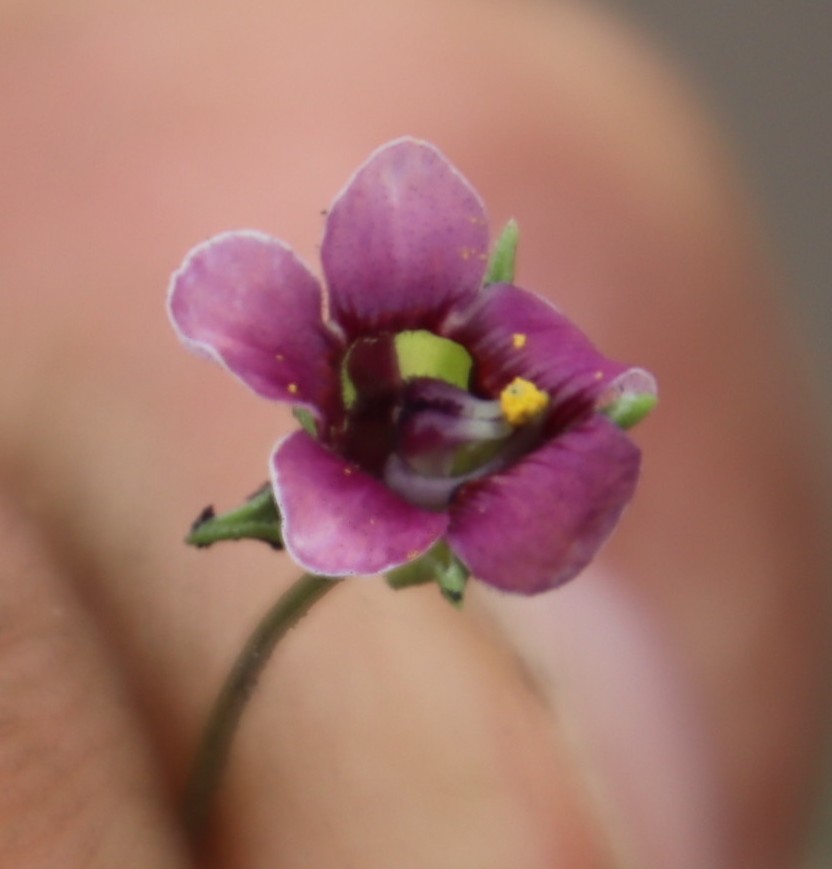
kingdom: Plantae
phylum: Tracheophyta
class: Magnoliopsida
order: Lamiales
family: Scrophulariaceae
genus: Diascia
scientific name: Diascia elongata
